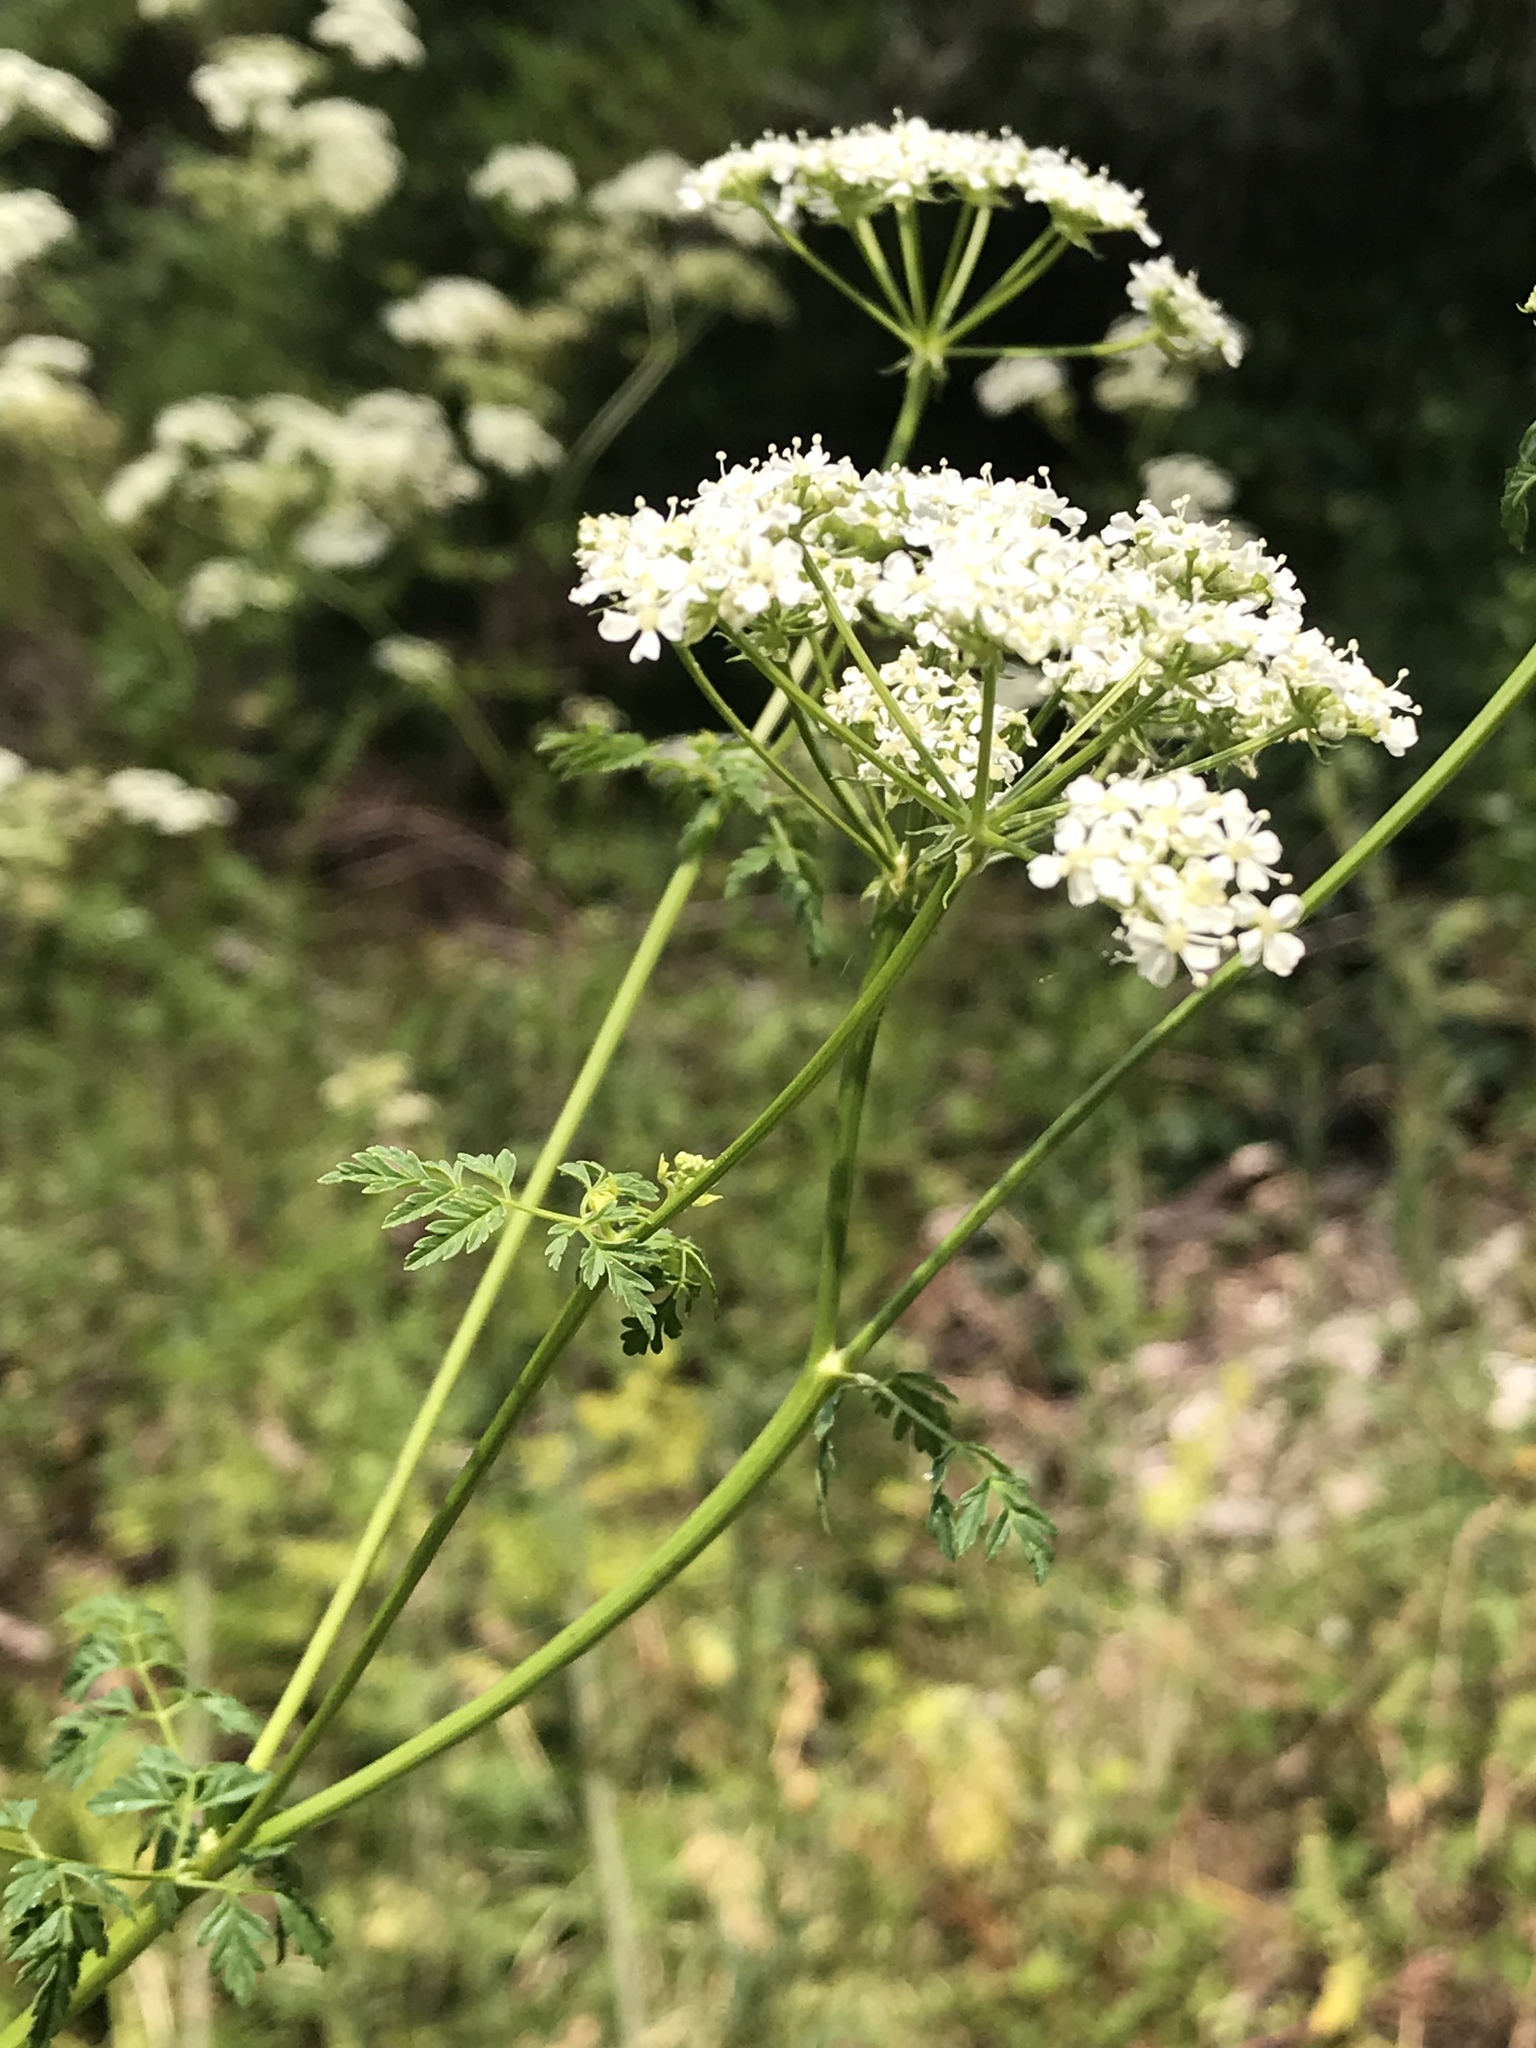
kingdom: Plantae
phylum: Tracheophyta
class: Magnoliopsida
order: Apiales
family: Apiaceae
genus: Conium
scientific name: Conium maculatum
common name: Hemlock
